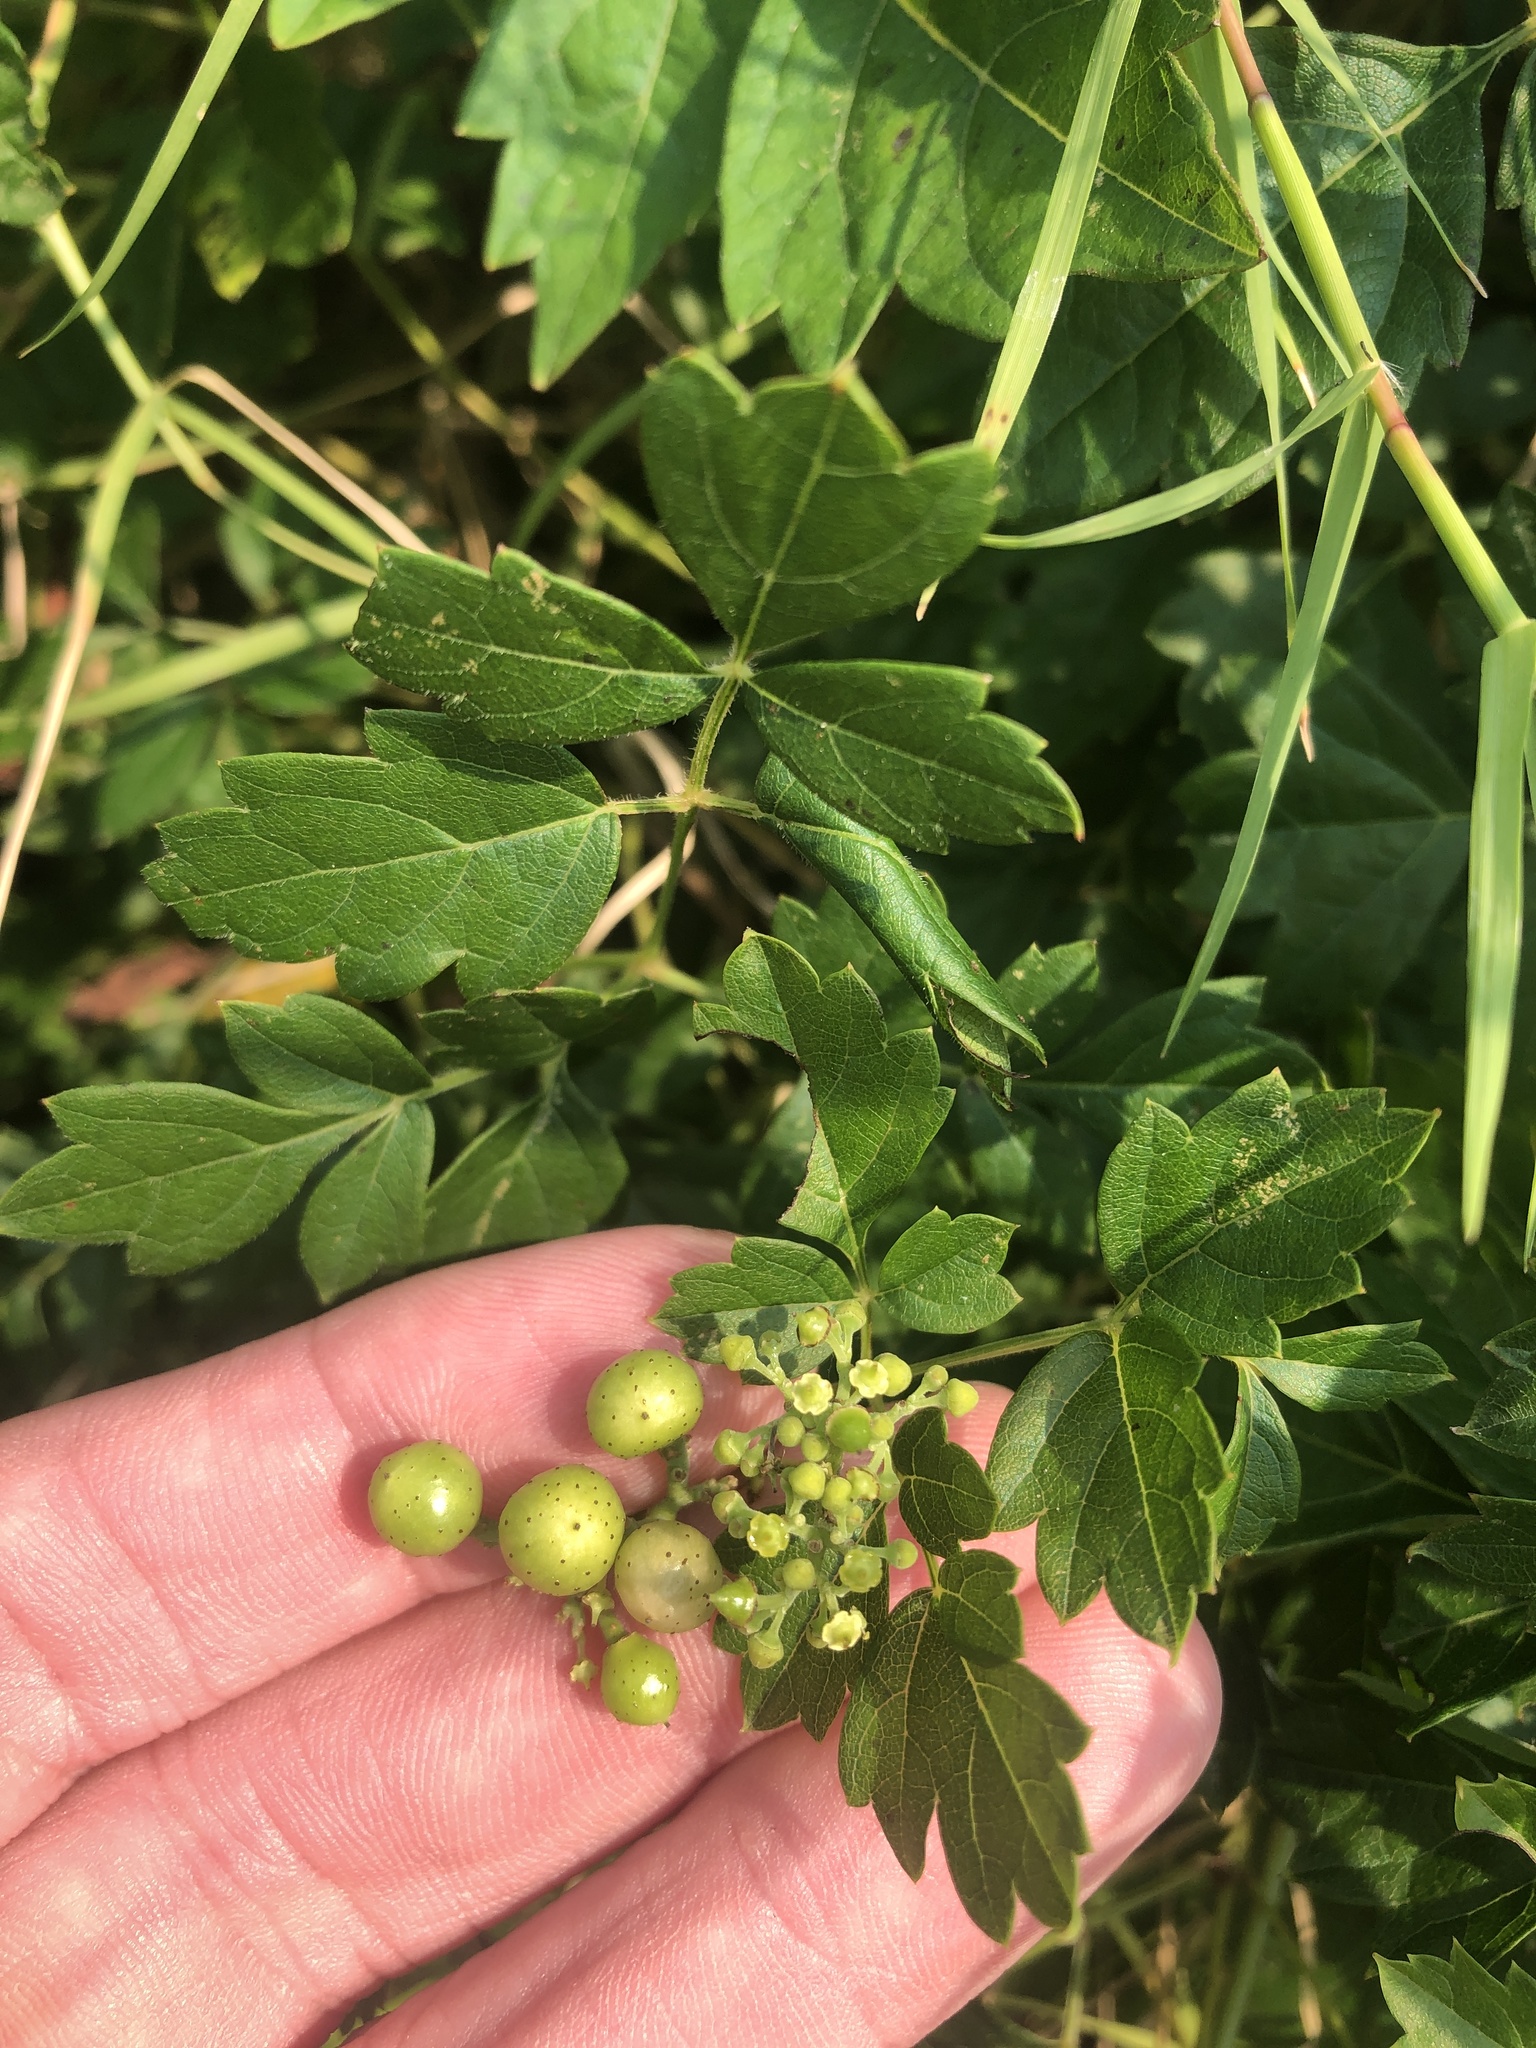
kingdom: Plantae
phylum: Tracheophyta
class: Magnoliopsida
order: Vitales
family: Vitaceae
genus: Nekemias
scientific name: Nekemias arborea
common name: Peppervine
